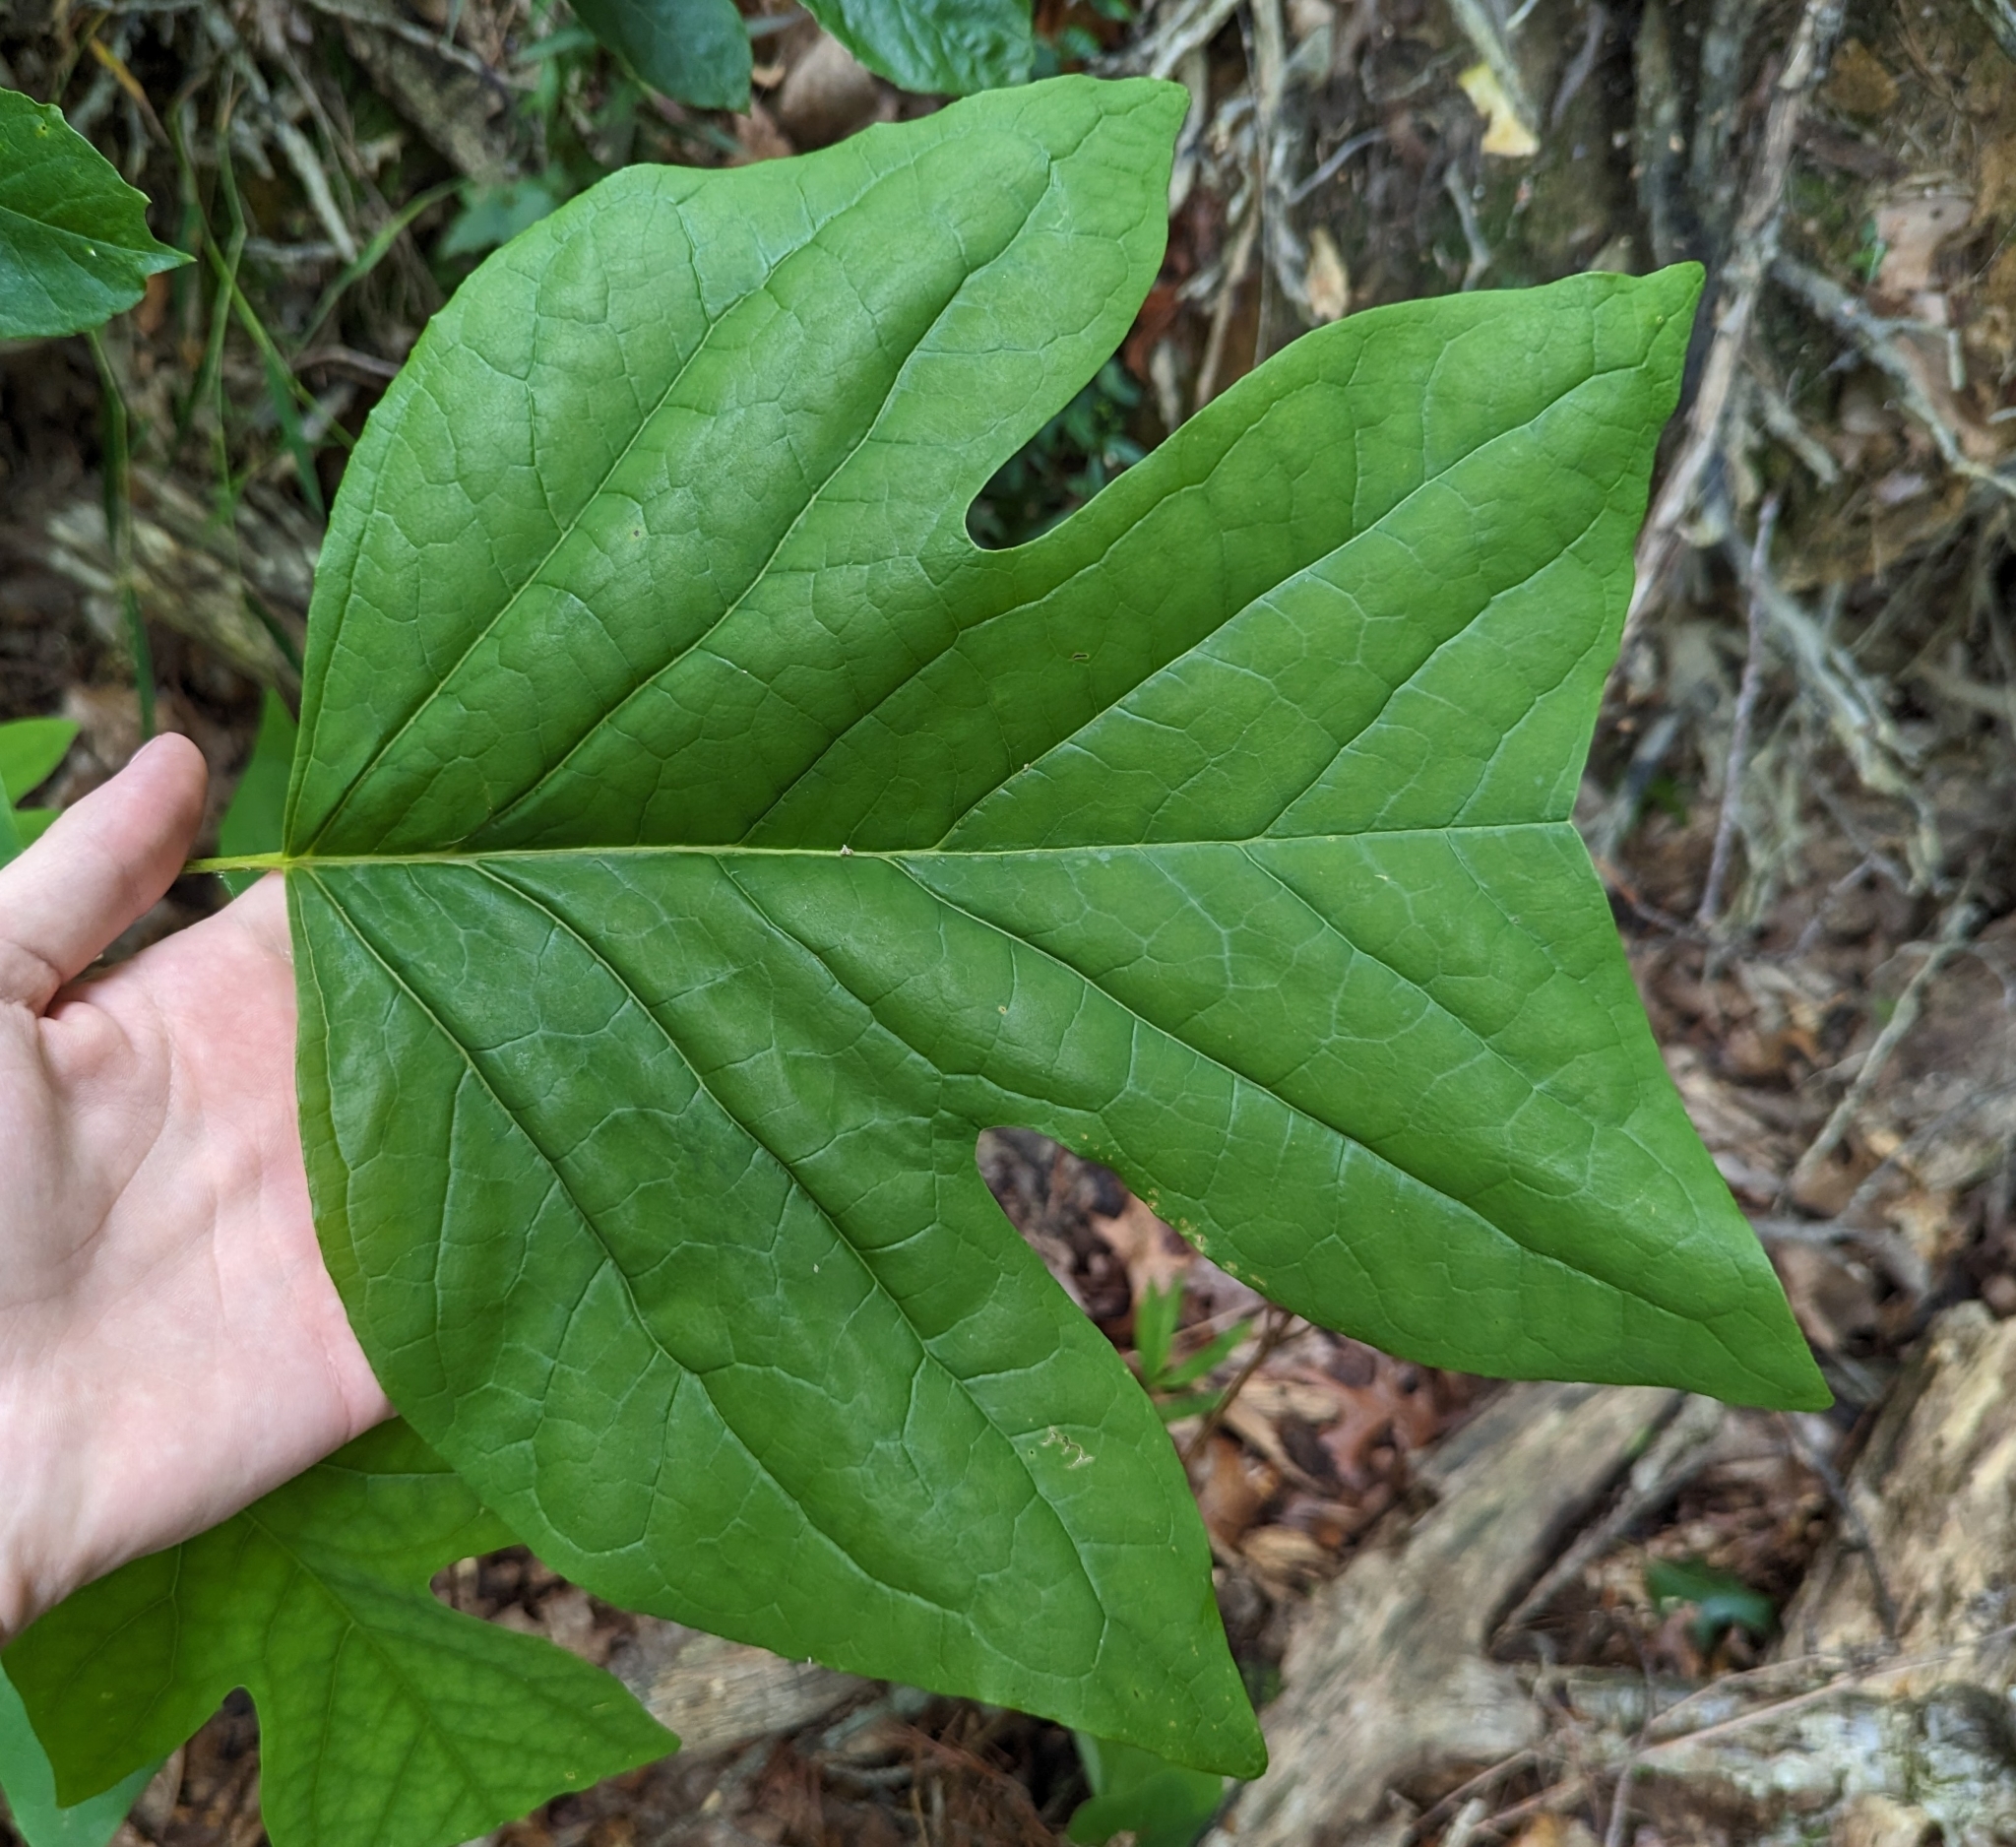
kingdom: Plantae
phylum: Tracheophyta
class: Magnoliopsida
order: Magnoliales
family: Magnoliaceae
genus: Liriodendron
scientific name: Liriodendron tulipifera
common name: Tulip tree
